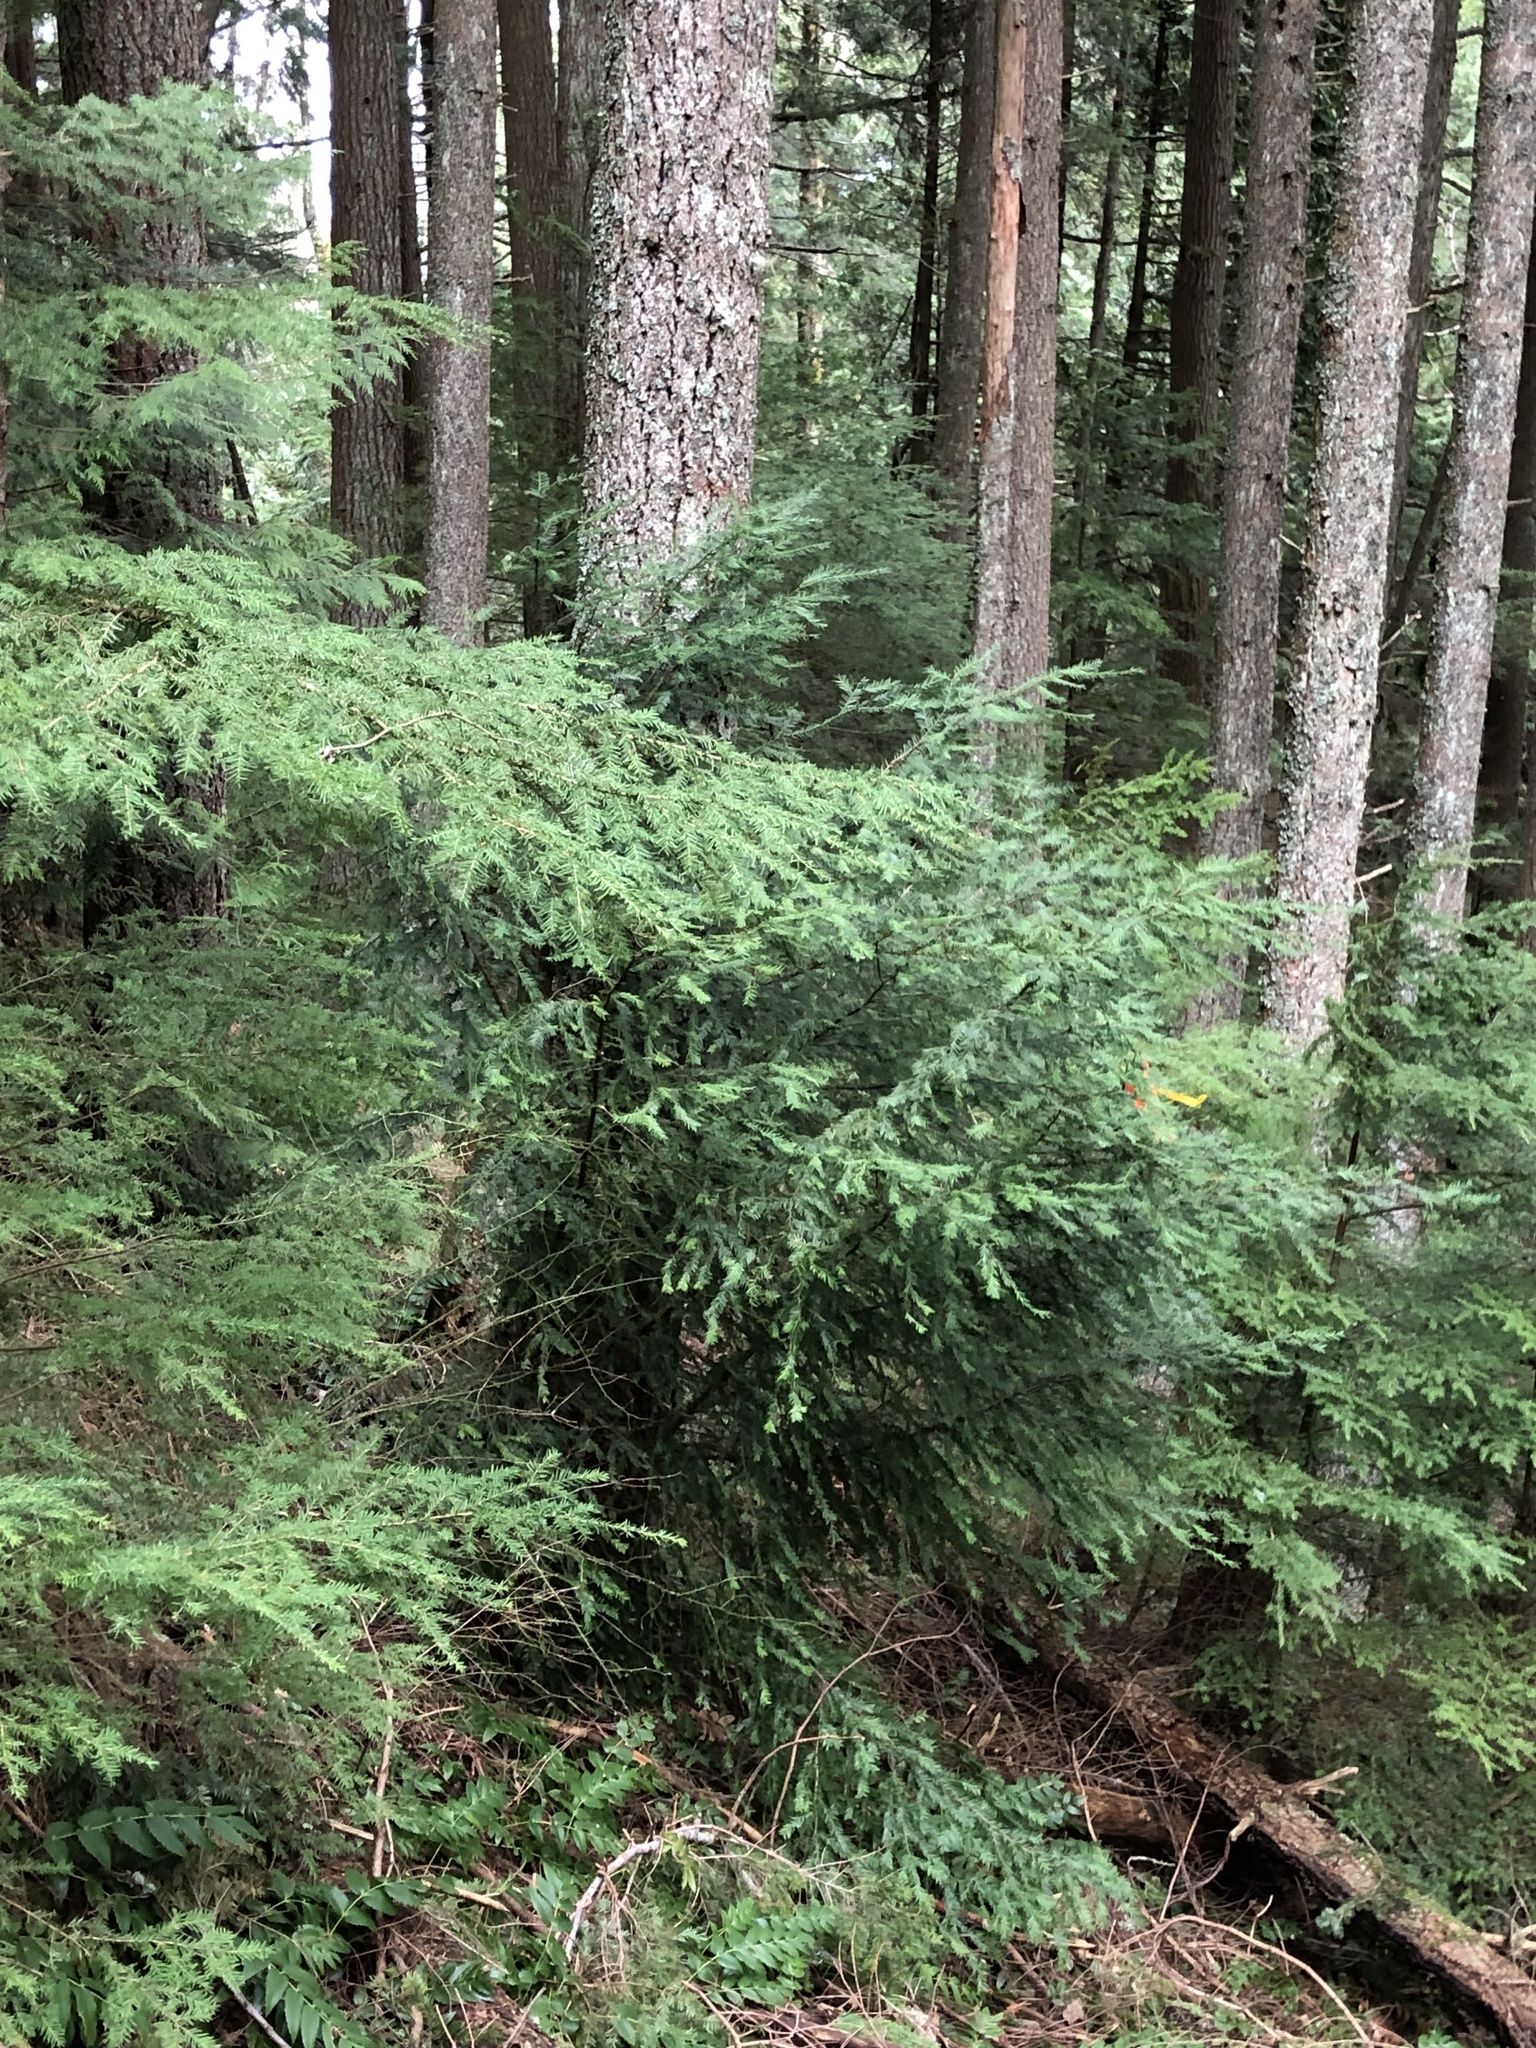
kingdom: Plantae
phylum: Tracheophyta
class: Pinopsida
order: Pinales
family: Pinaceae
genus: Tsuga
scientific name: Tsuga heterophylla
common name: Western hemlock
